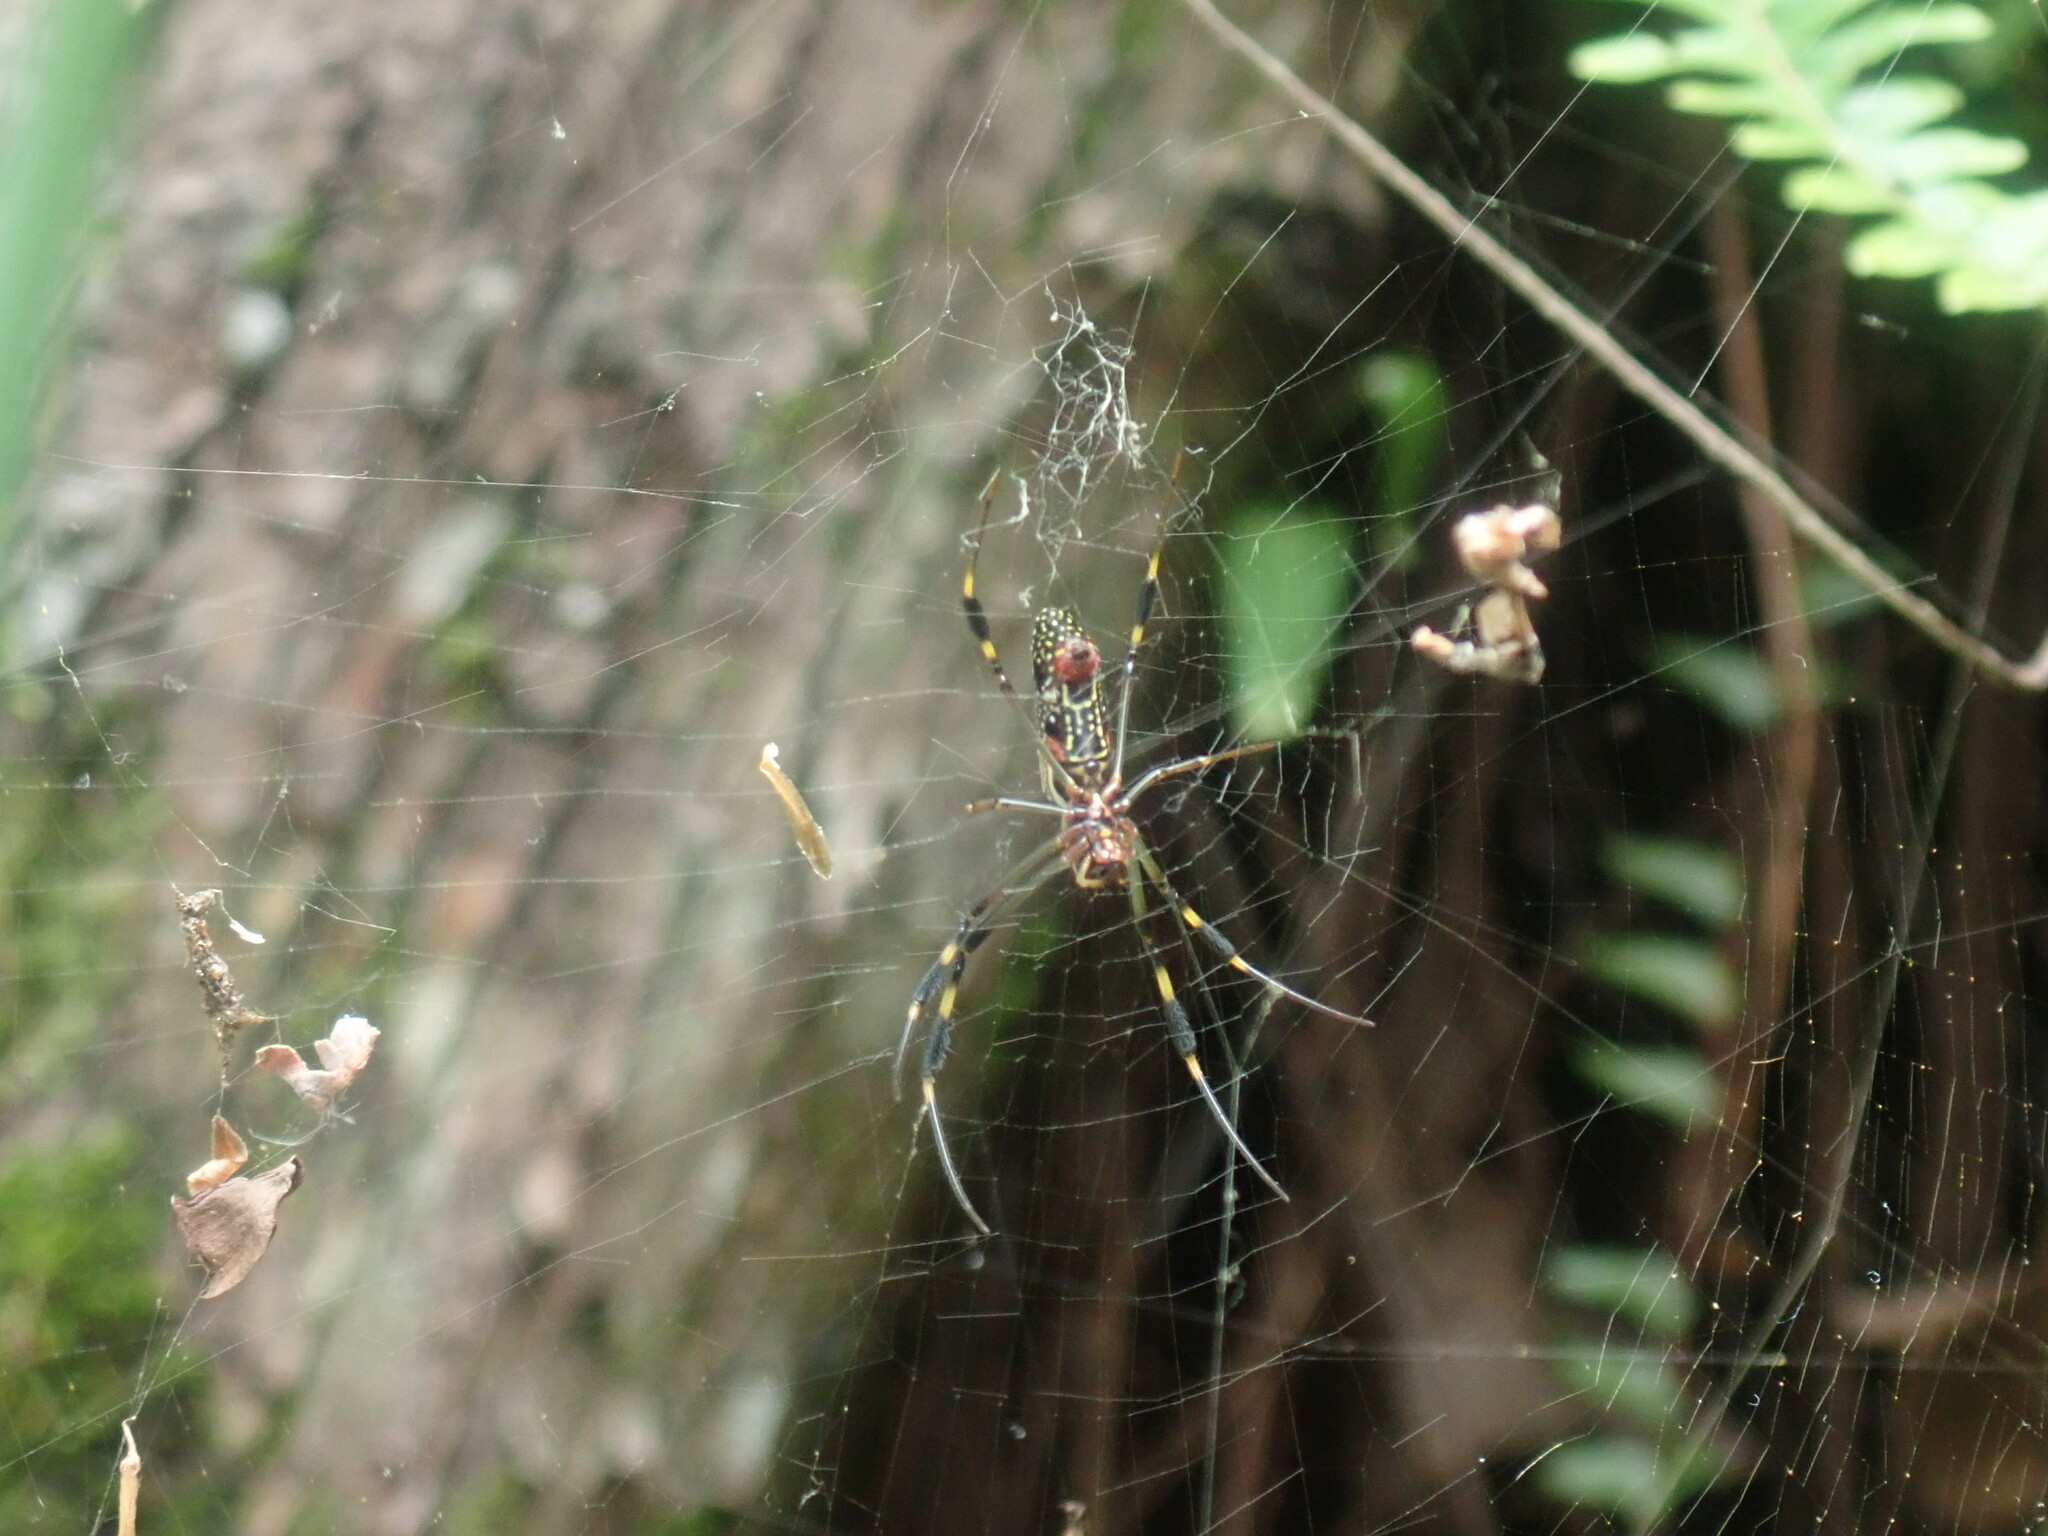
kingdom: Animalia
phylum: Arthropoda
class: Arachnida
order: Araneae
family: Araneidae
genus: Trichonephila
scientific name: Trichonephila clavipes
